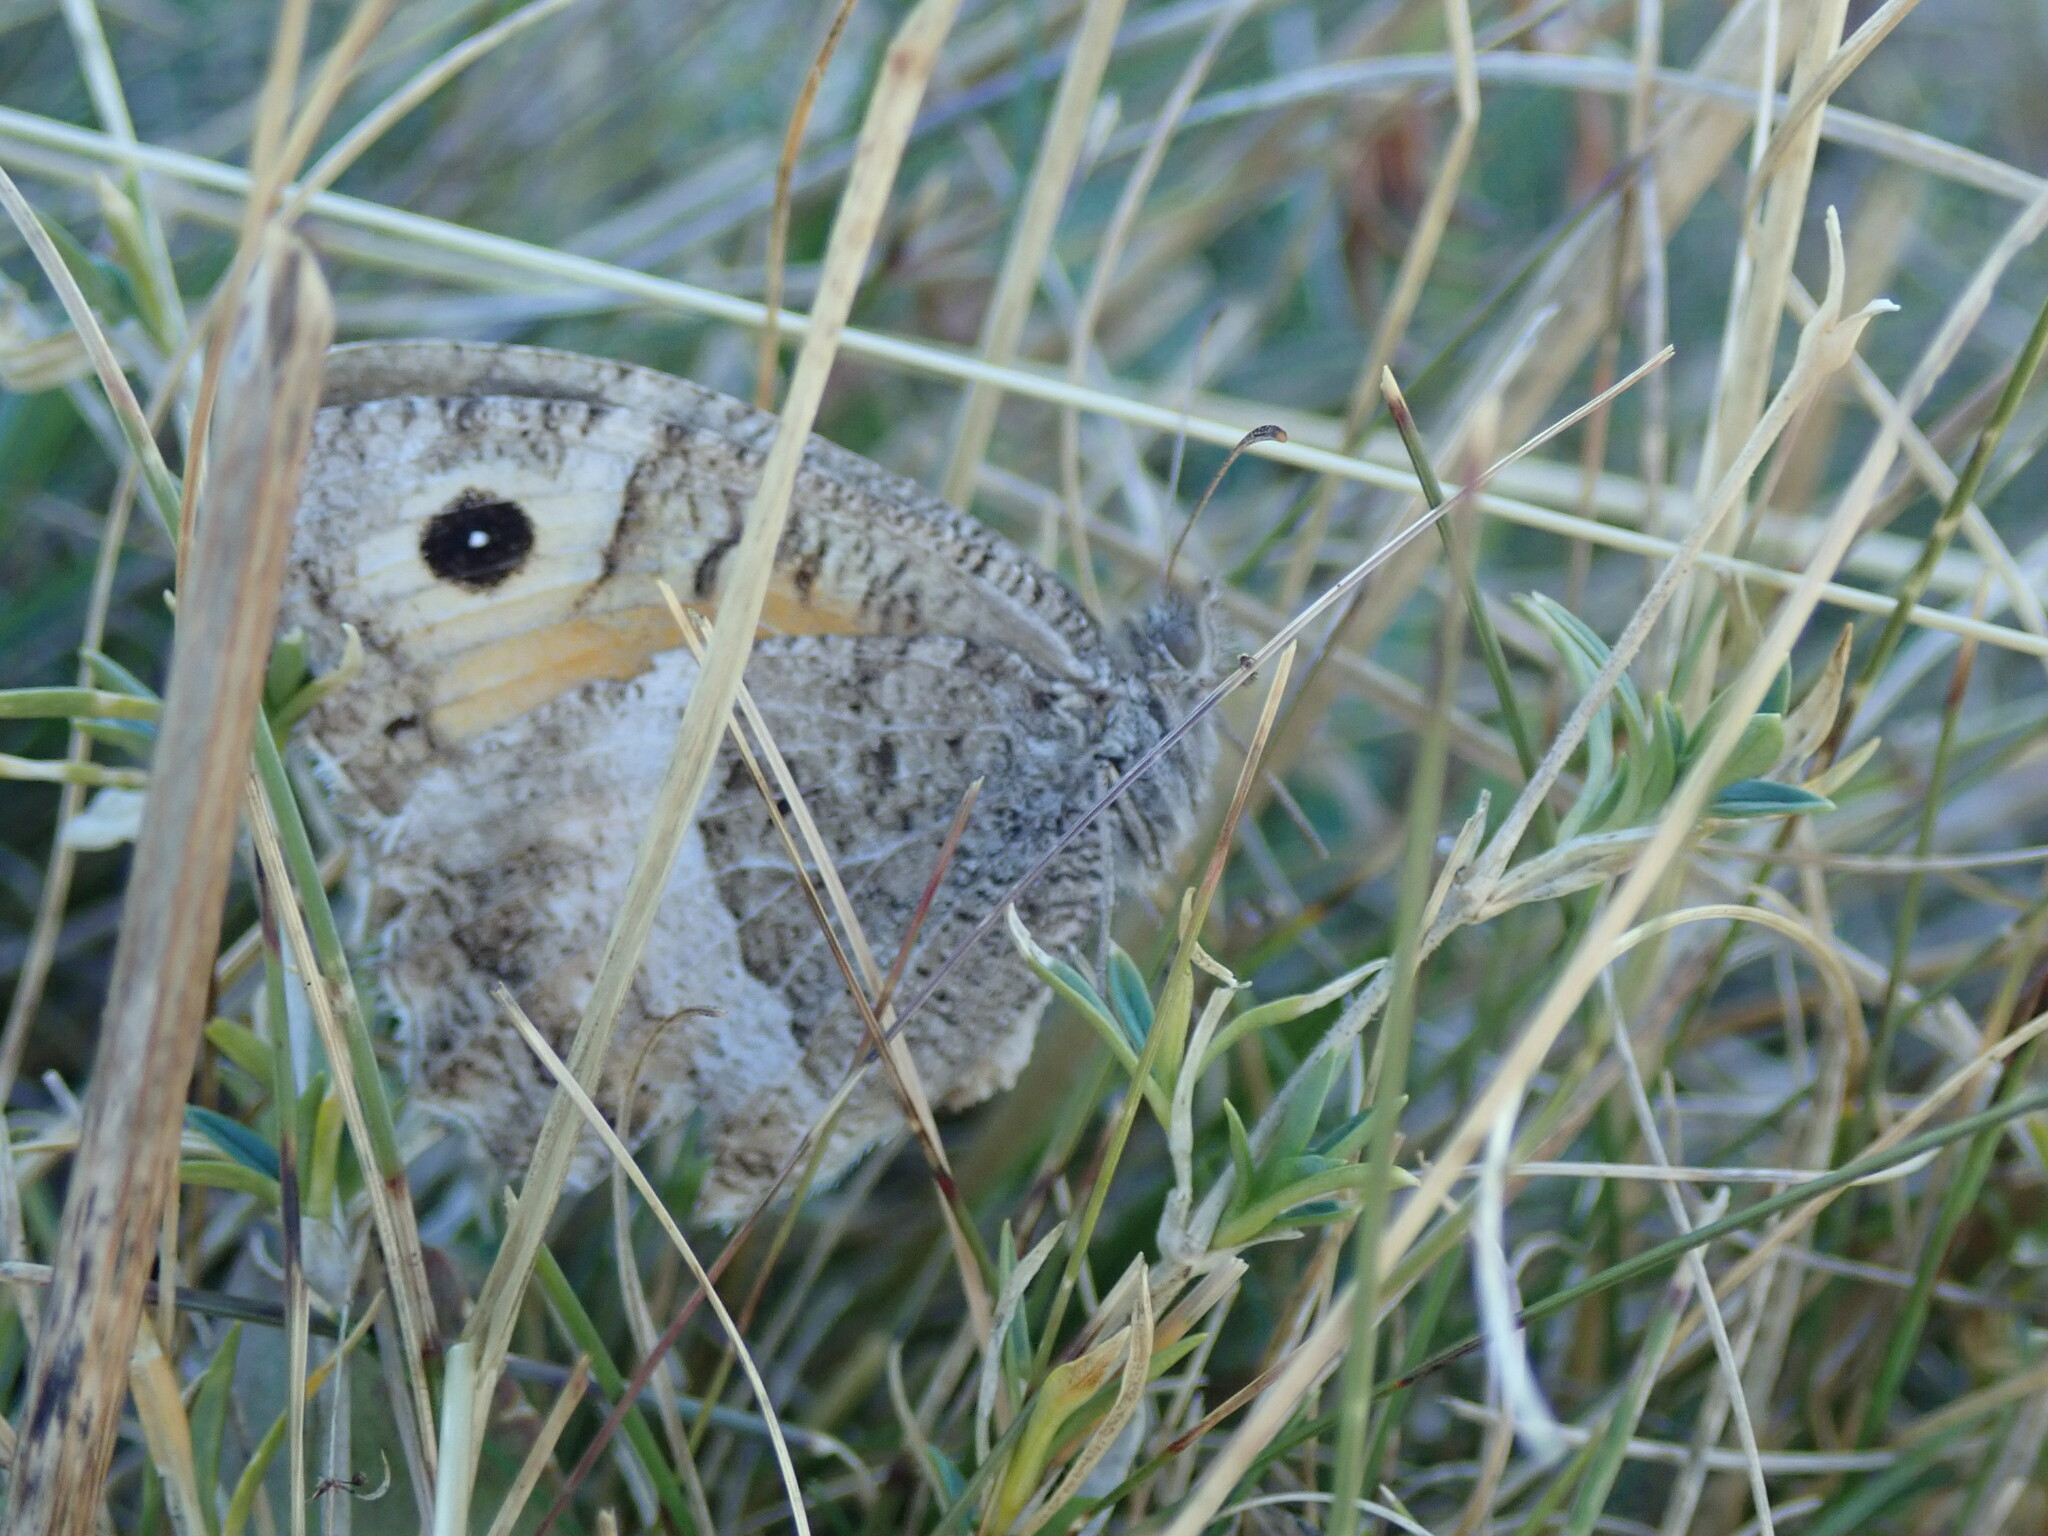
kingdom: Animalia
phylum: Arthropoda
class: Insecta
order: Lepidoptera
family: Nymphalidae
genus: Arethusana
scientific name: Arethusana arethusa
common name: False grayling
